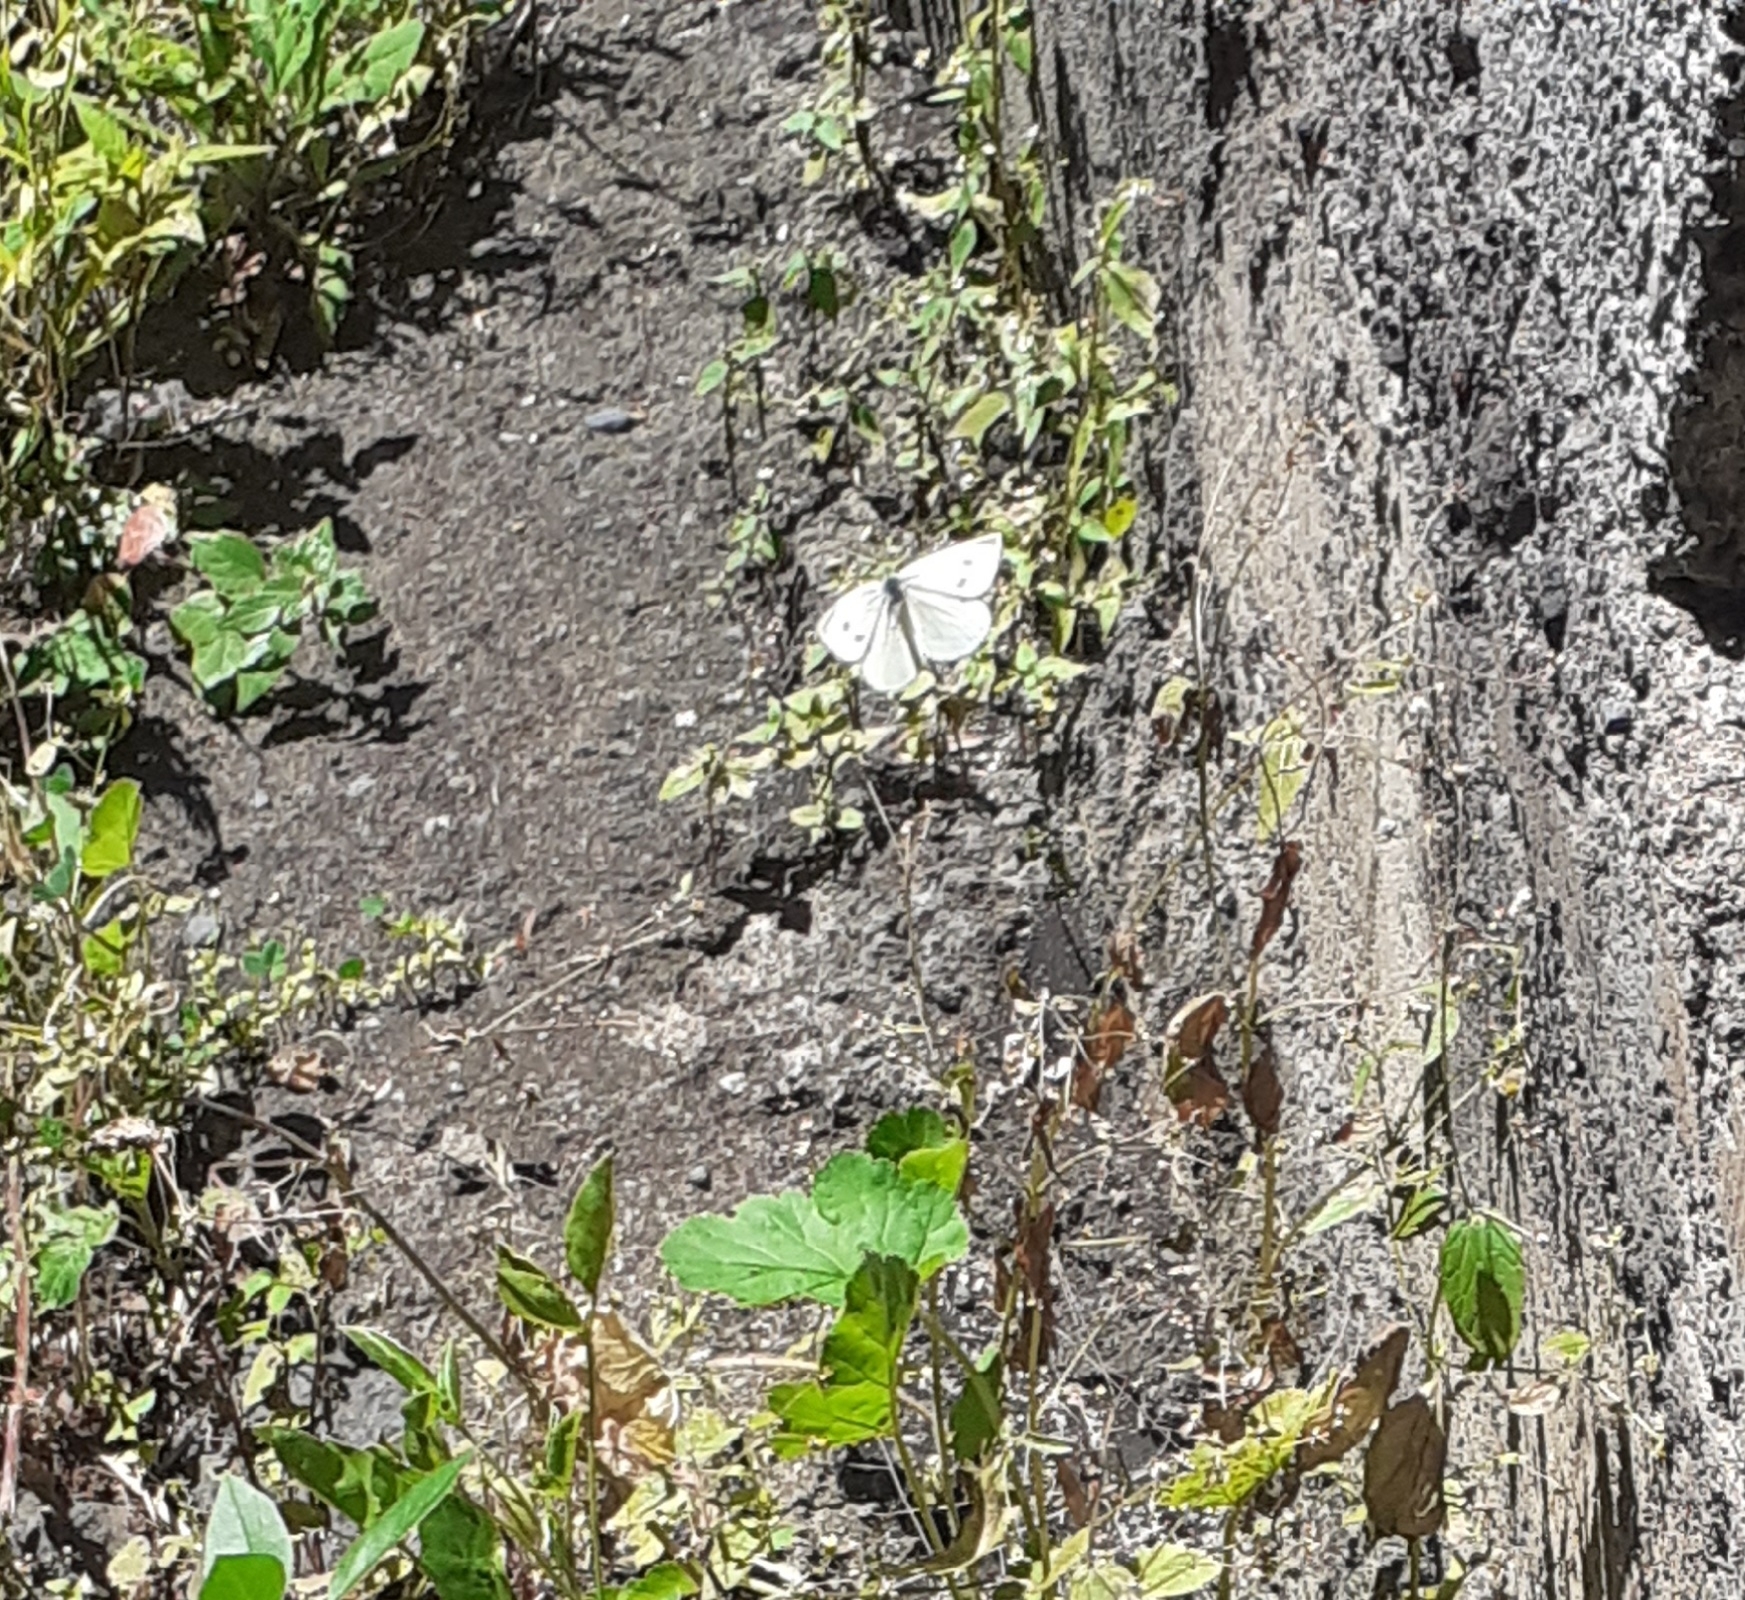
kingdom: Animalia
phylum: Arthropoda
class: Insecta
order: Lepidoptera
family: Pieridae
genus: Pieris
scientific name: Pieris rapae
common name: Small white
